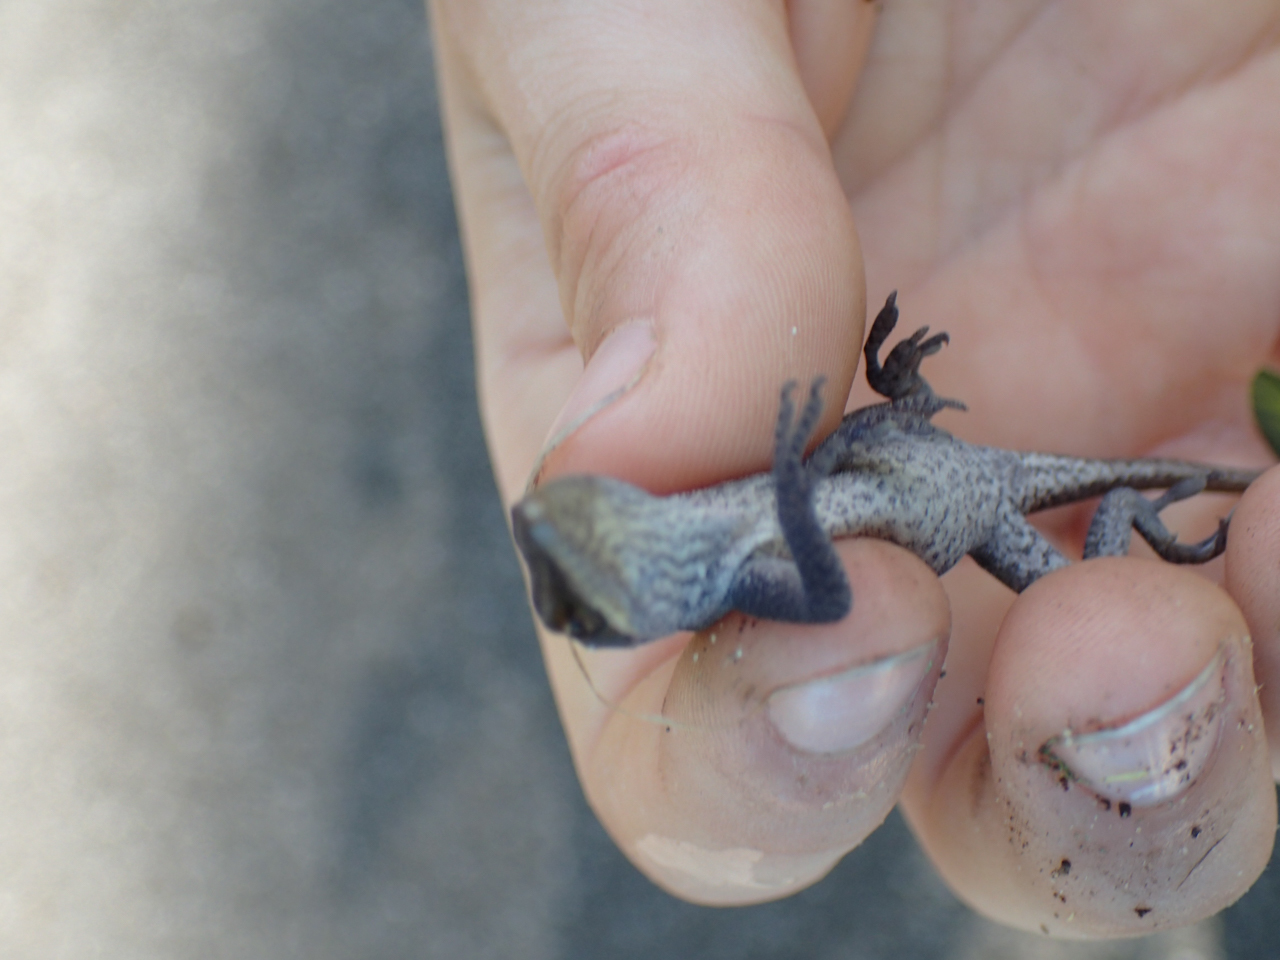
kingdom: Animalia
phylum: Chordata
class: Squamata
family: Dactyloidae
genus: Anolis
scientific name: Anolis carolinensis
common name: Green anole
